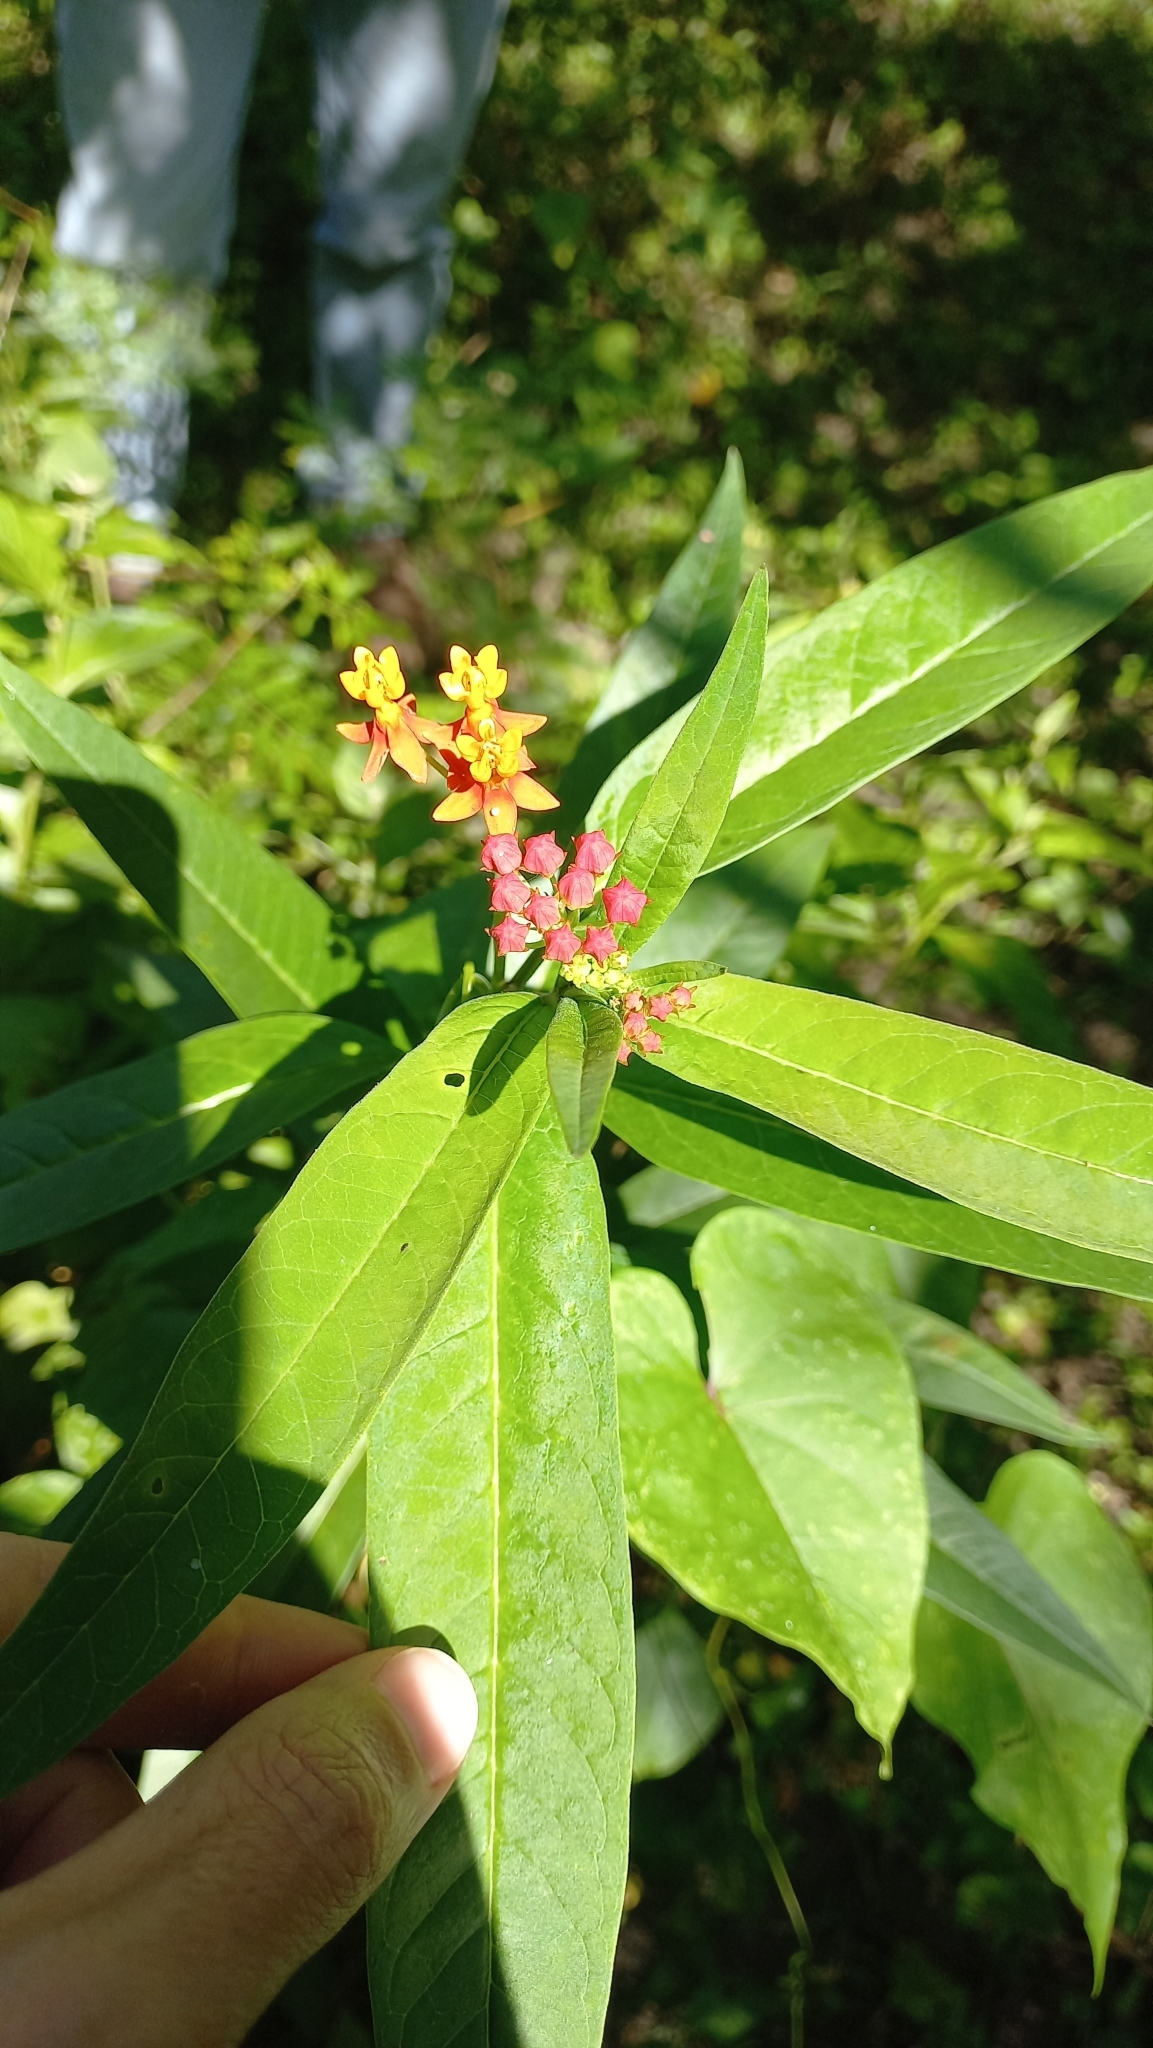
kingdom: Plantae
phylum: Tracheophyta
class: Magnoliopsida
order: Gentianales
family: Apocynaceae
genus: Asclepias
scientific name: Asclepias curassavica
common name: Bloodflower
